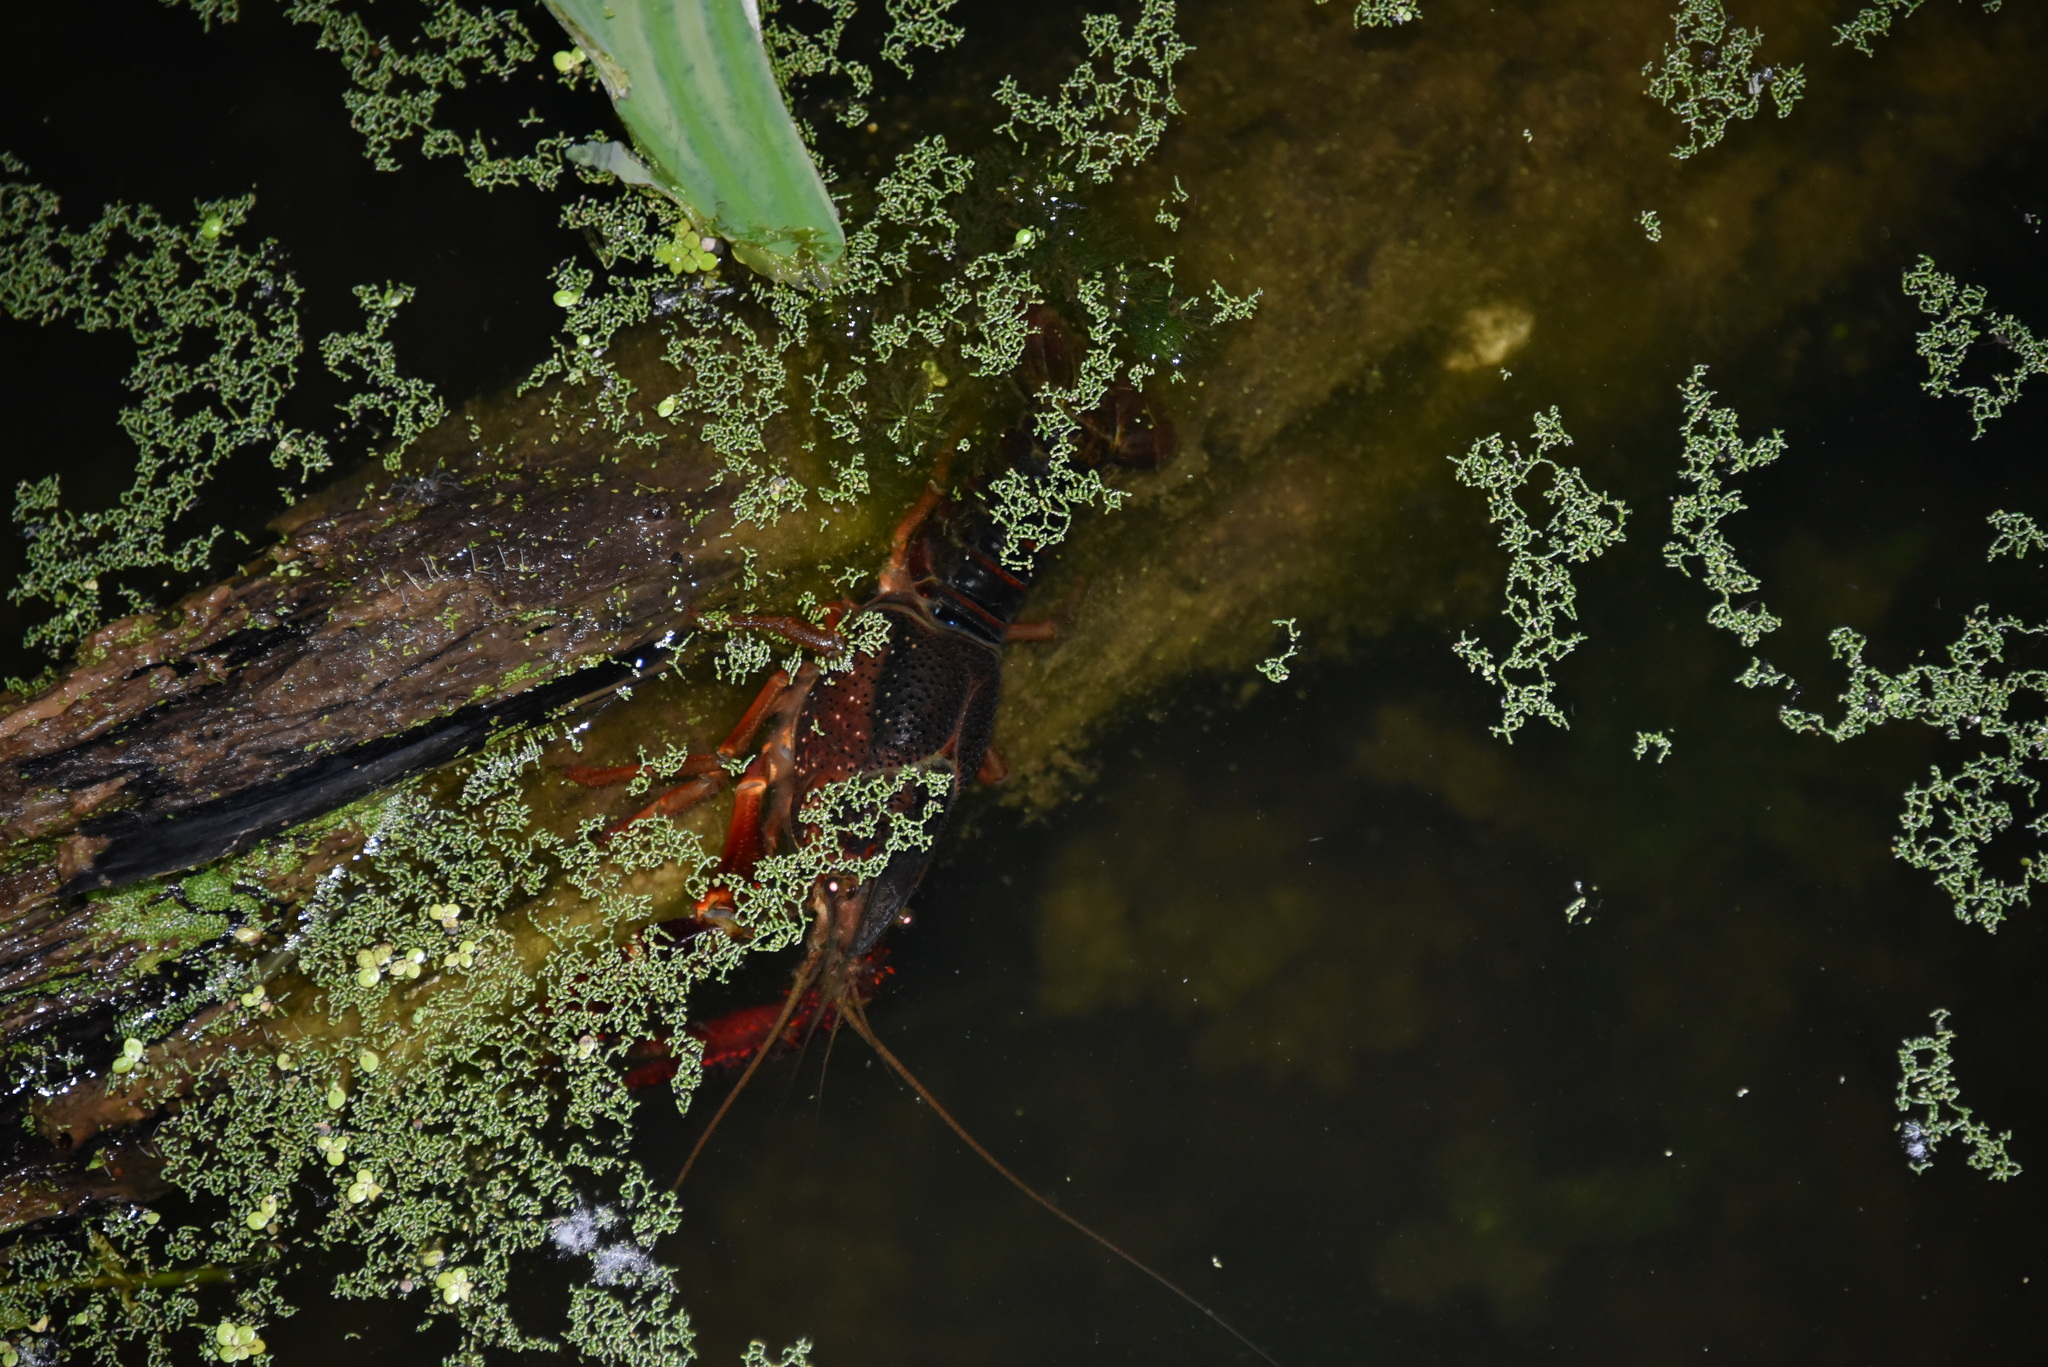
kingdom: Animalia
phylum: Arthropoda
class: Malacostraca
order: Decapoda
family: Cambaridae
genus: Procambarus
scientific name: Procambarus clarkii
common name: Red swamp crayfish
